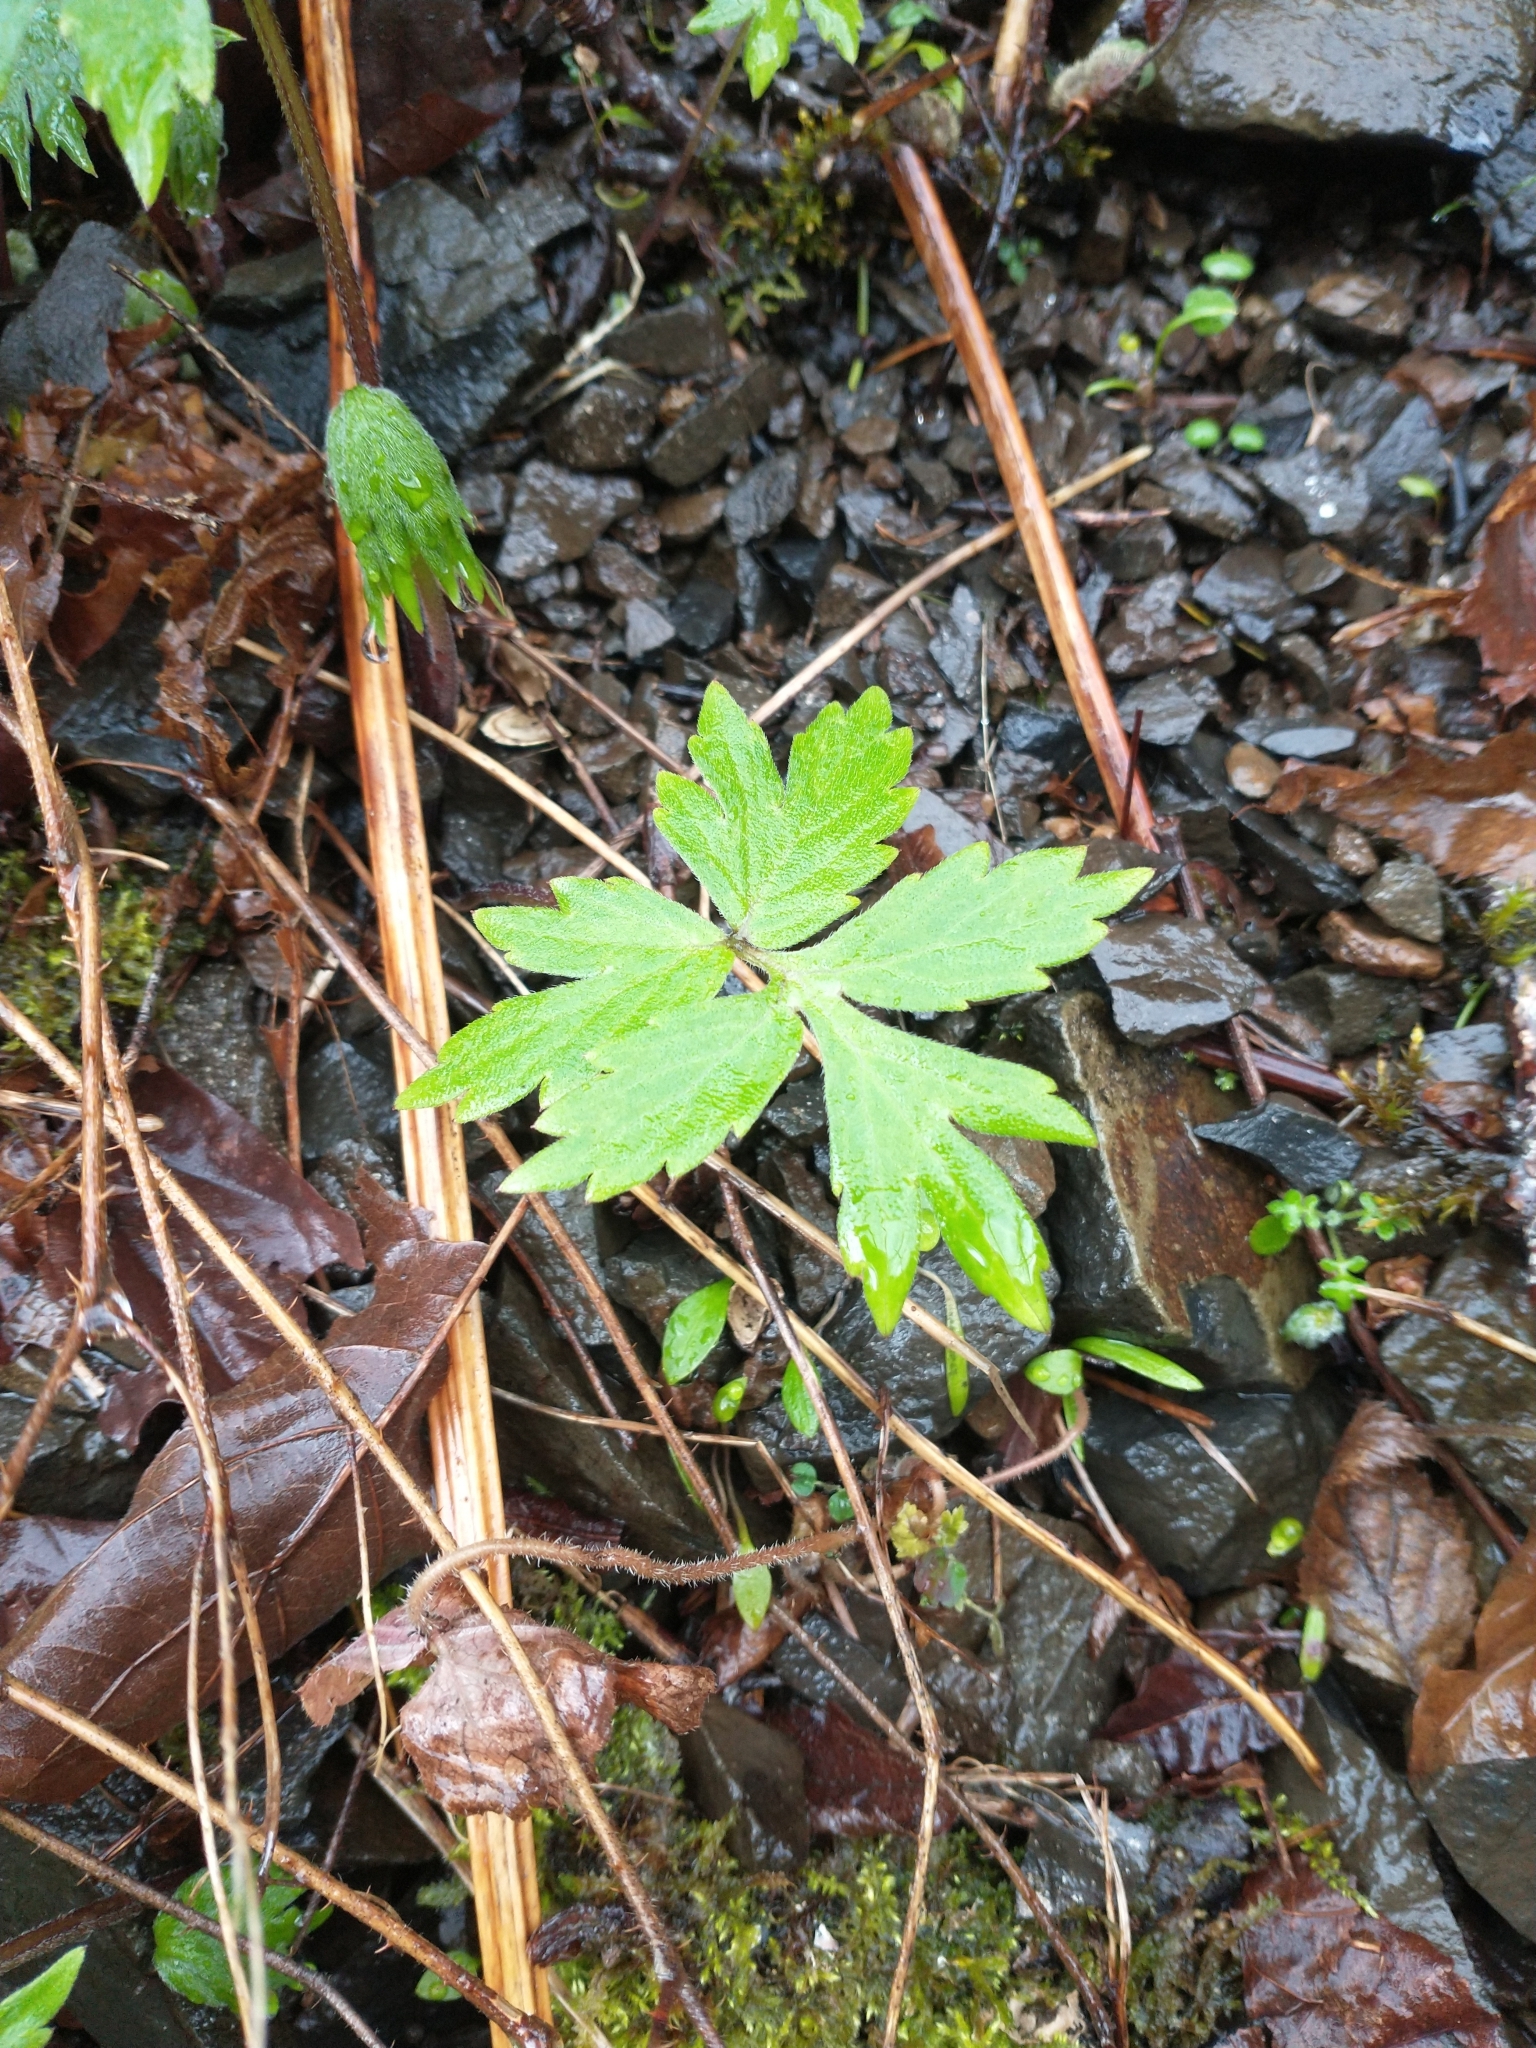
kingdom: Plantae
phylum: Tracheophyta
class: Magnoliopsida
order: Boraginales
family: Hydrophyllaceae
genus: Hydrophyllum
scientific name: Hydrophyllum tenuipes
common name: Pacific waterleaf
